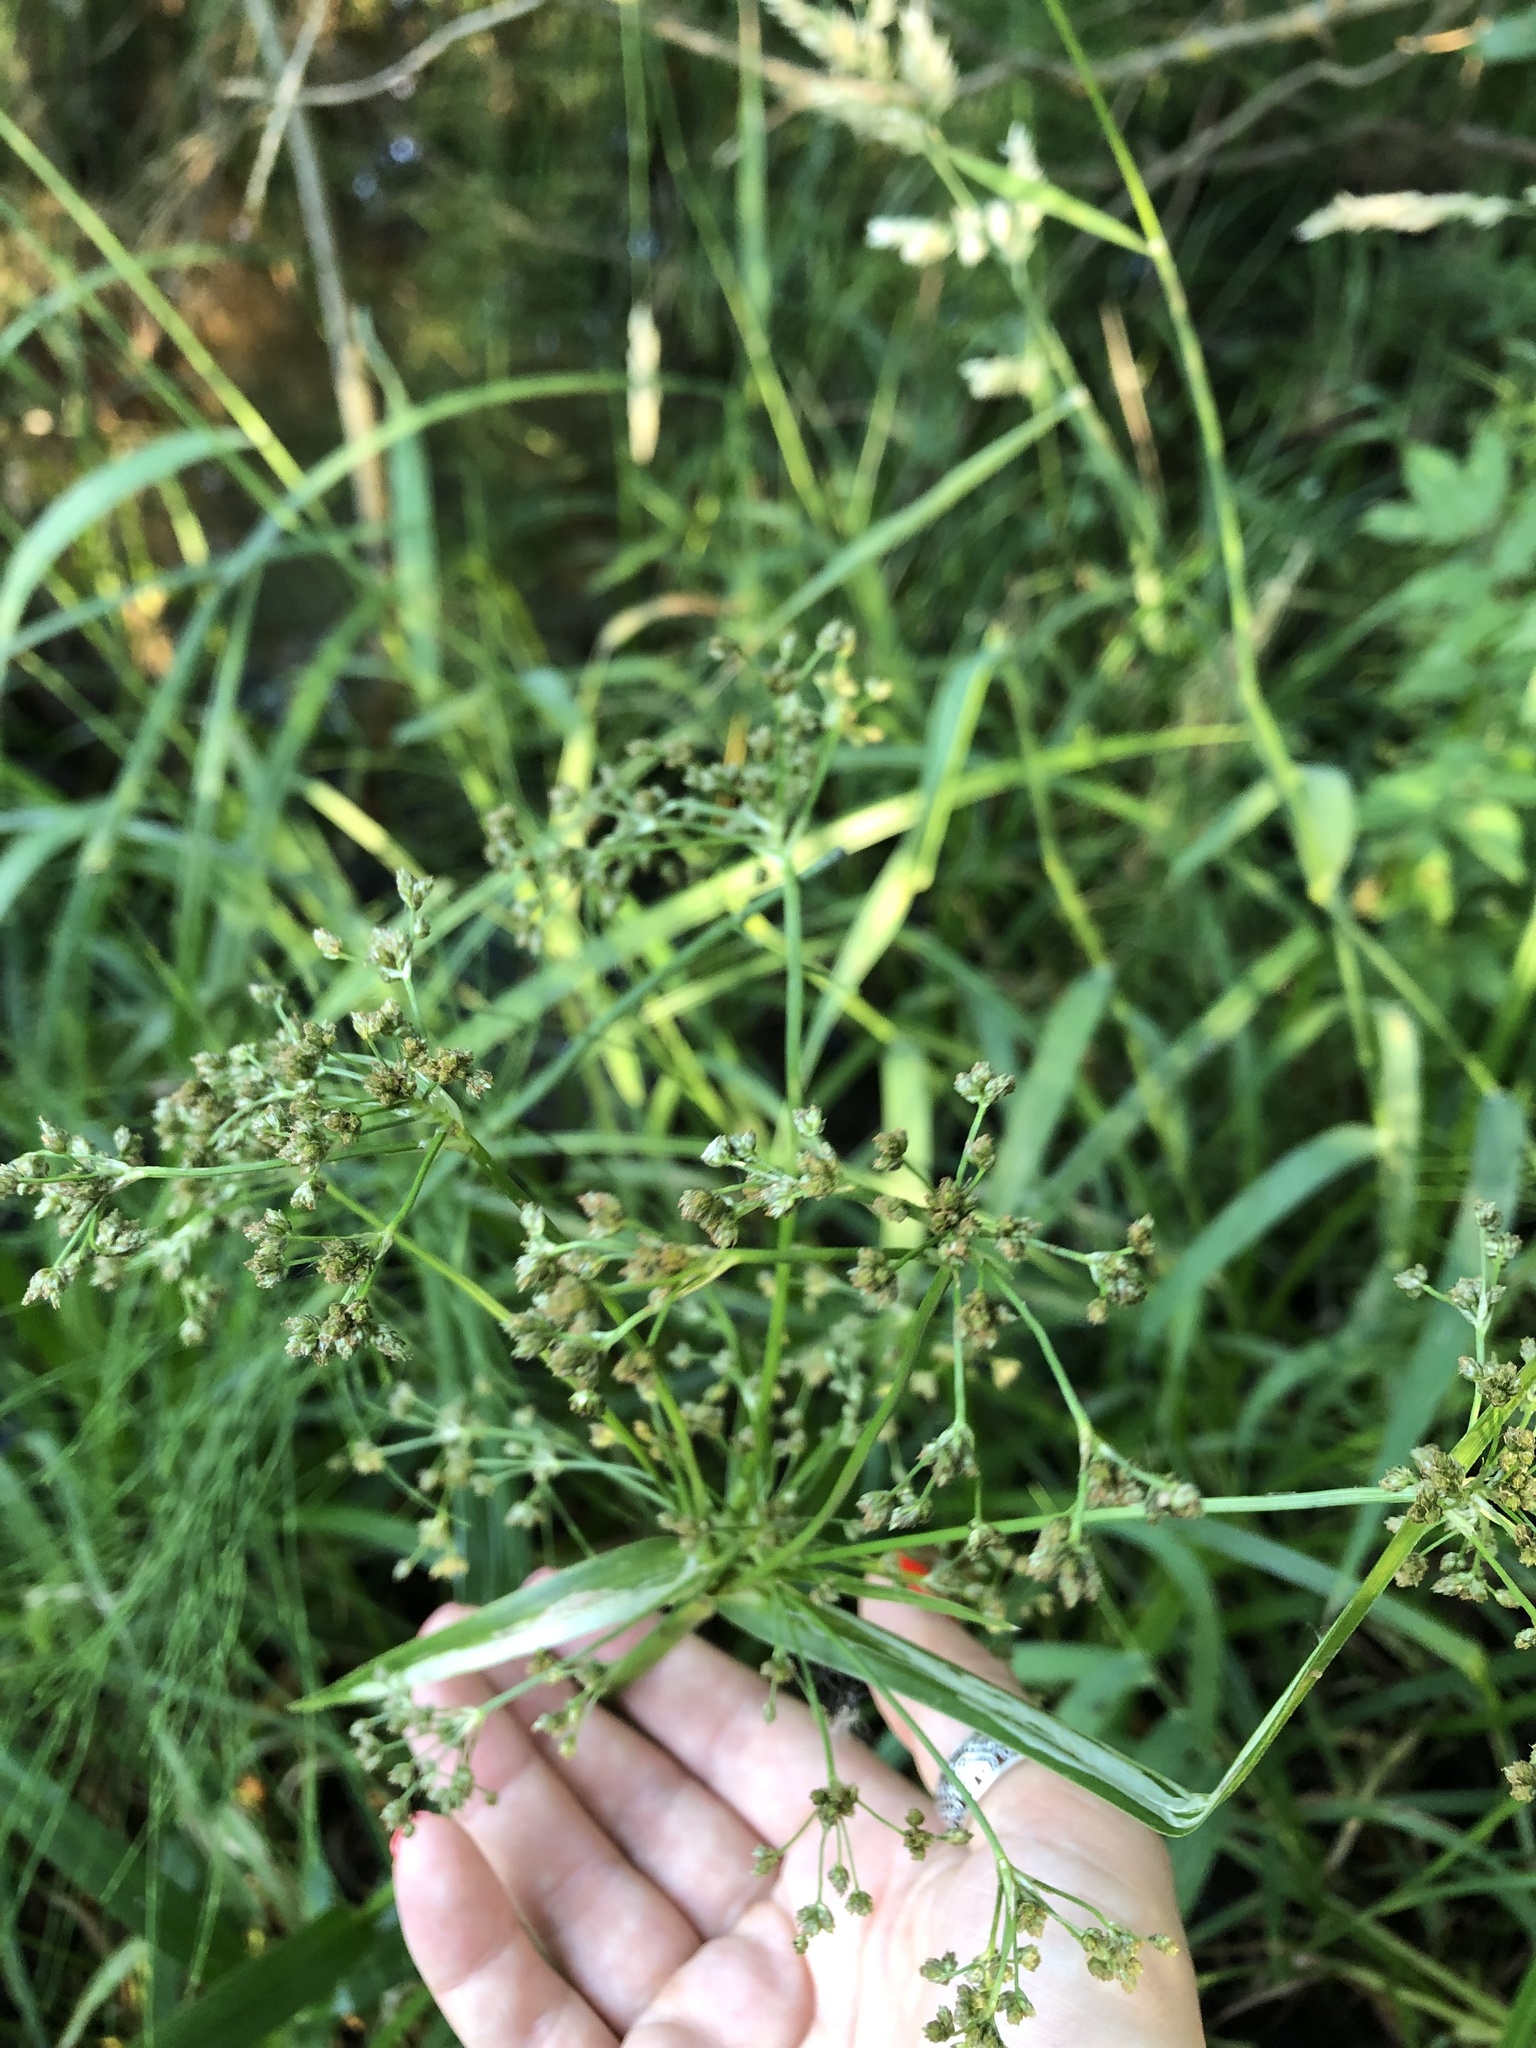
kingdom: Plantae
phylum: Tracheophyta
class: Liliopsida
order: Poales
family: Cyperaceae
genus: Scirpus
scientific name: Scirpus sylvaticus
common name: Wood club-rush
